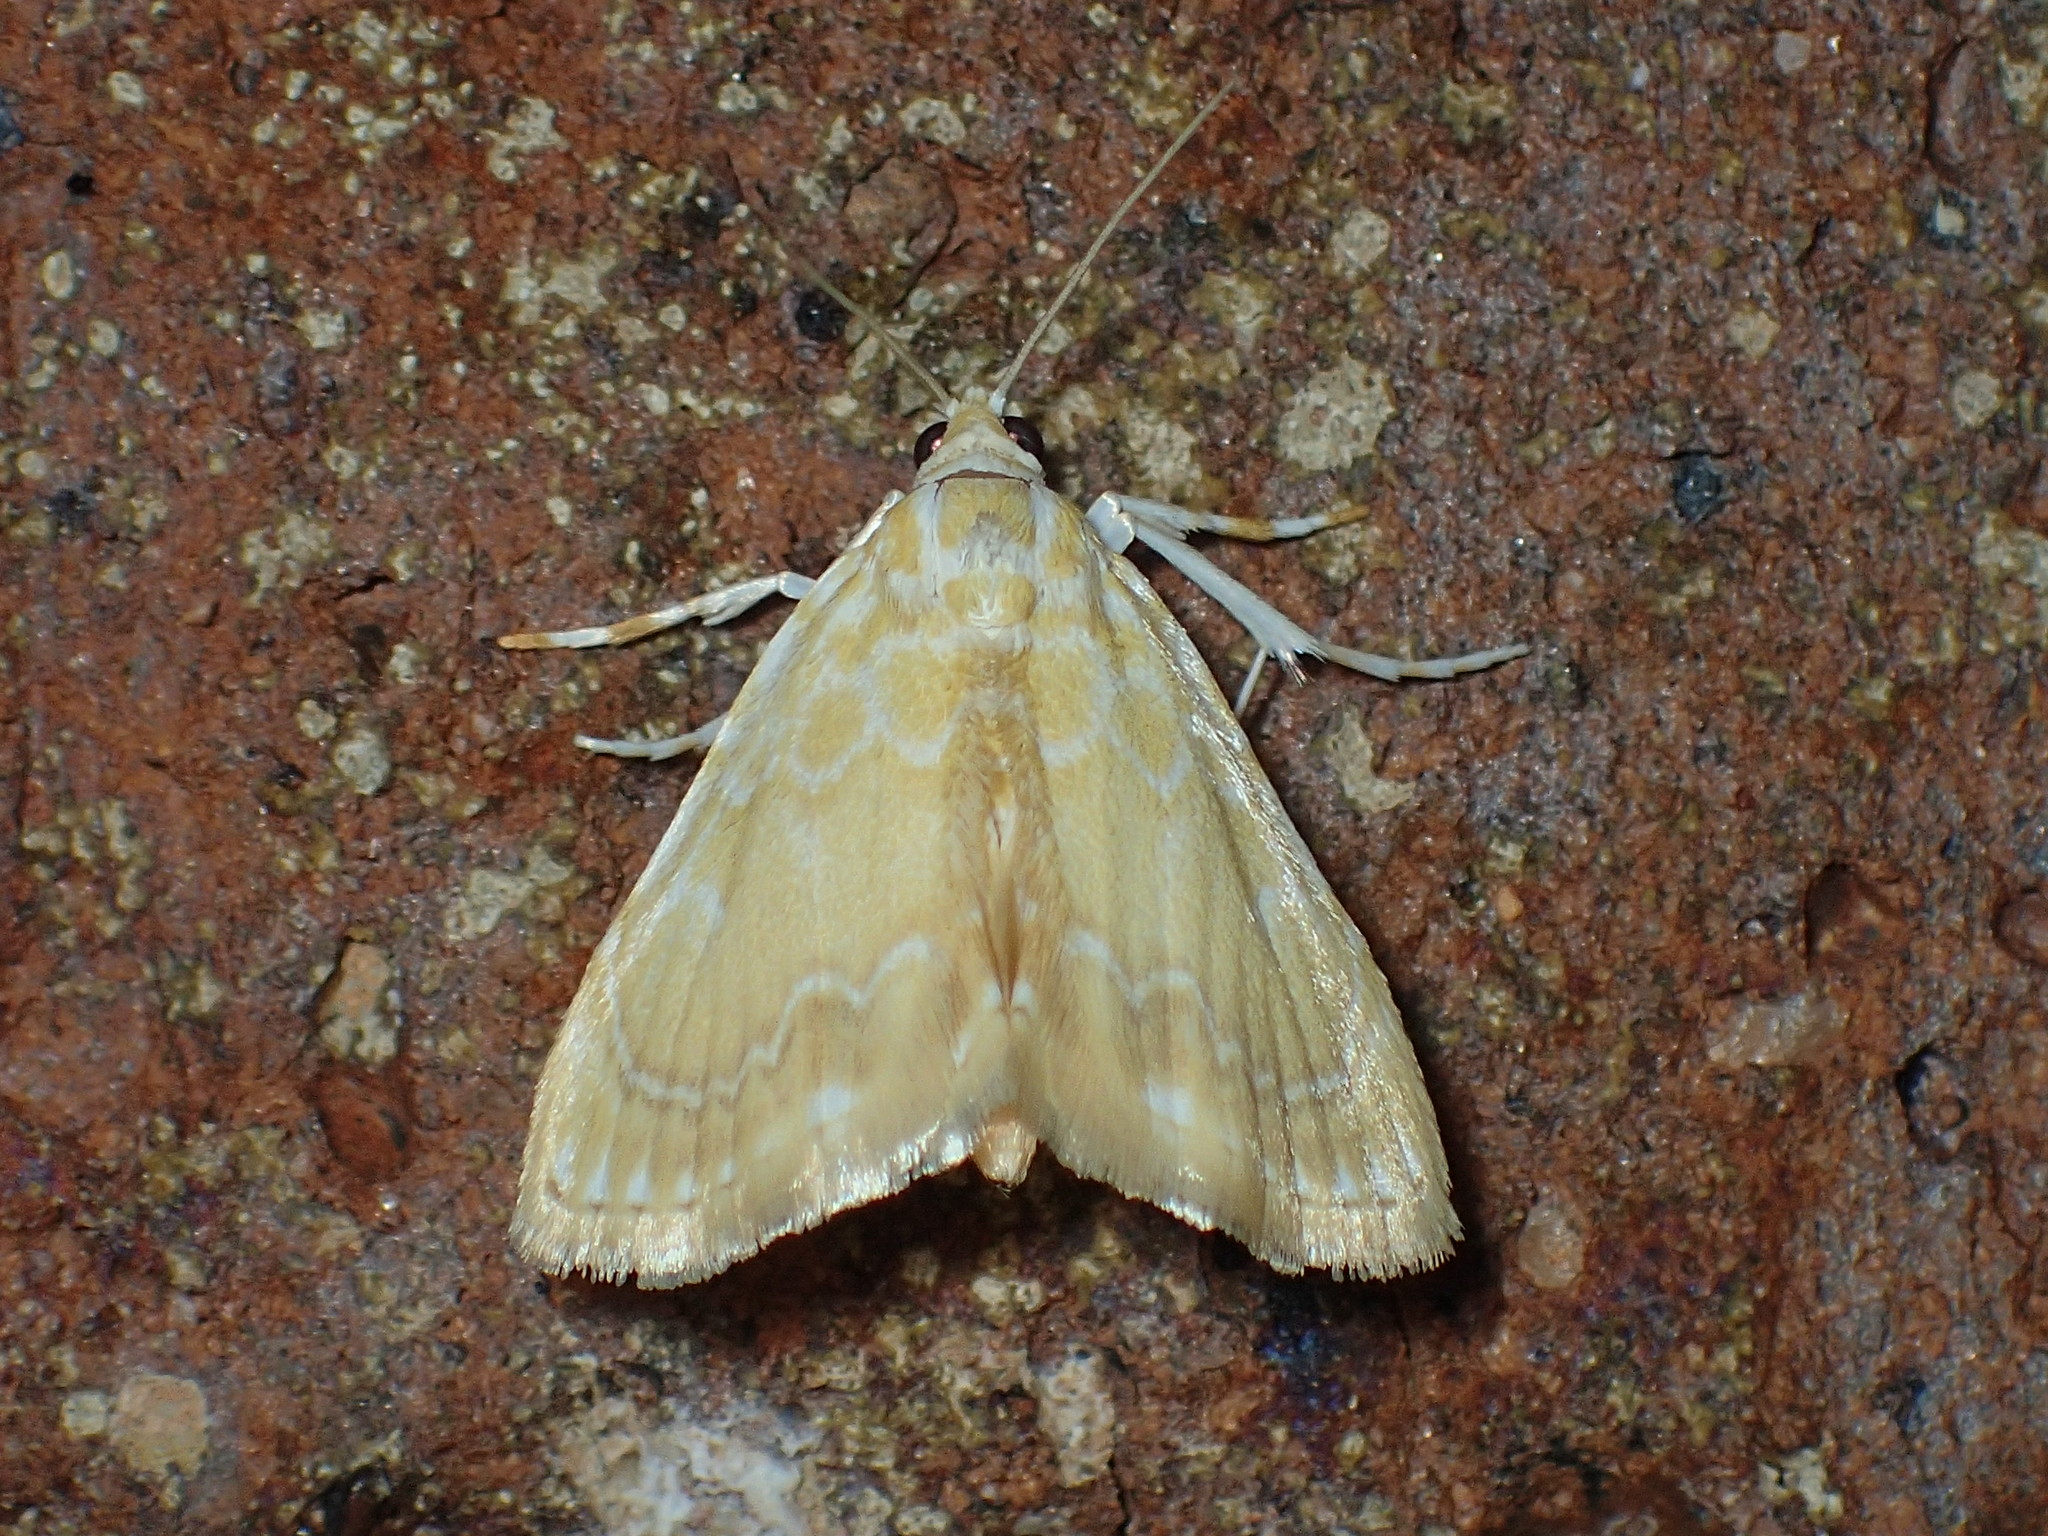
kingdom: Animalia
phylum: Arthropoda
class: Insecta
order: Lepidoptera
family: Crambidae
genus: Glaphyria
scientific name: Glaphyria glaphyralis
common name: Common glaphyria moth
